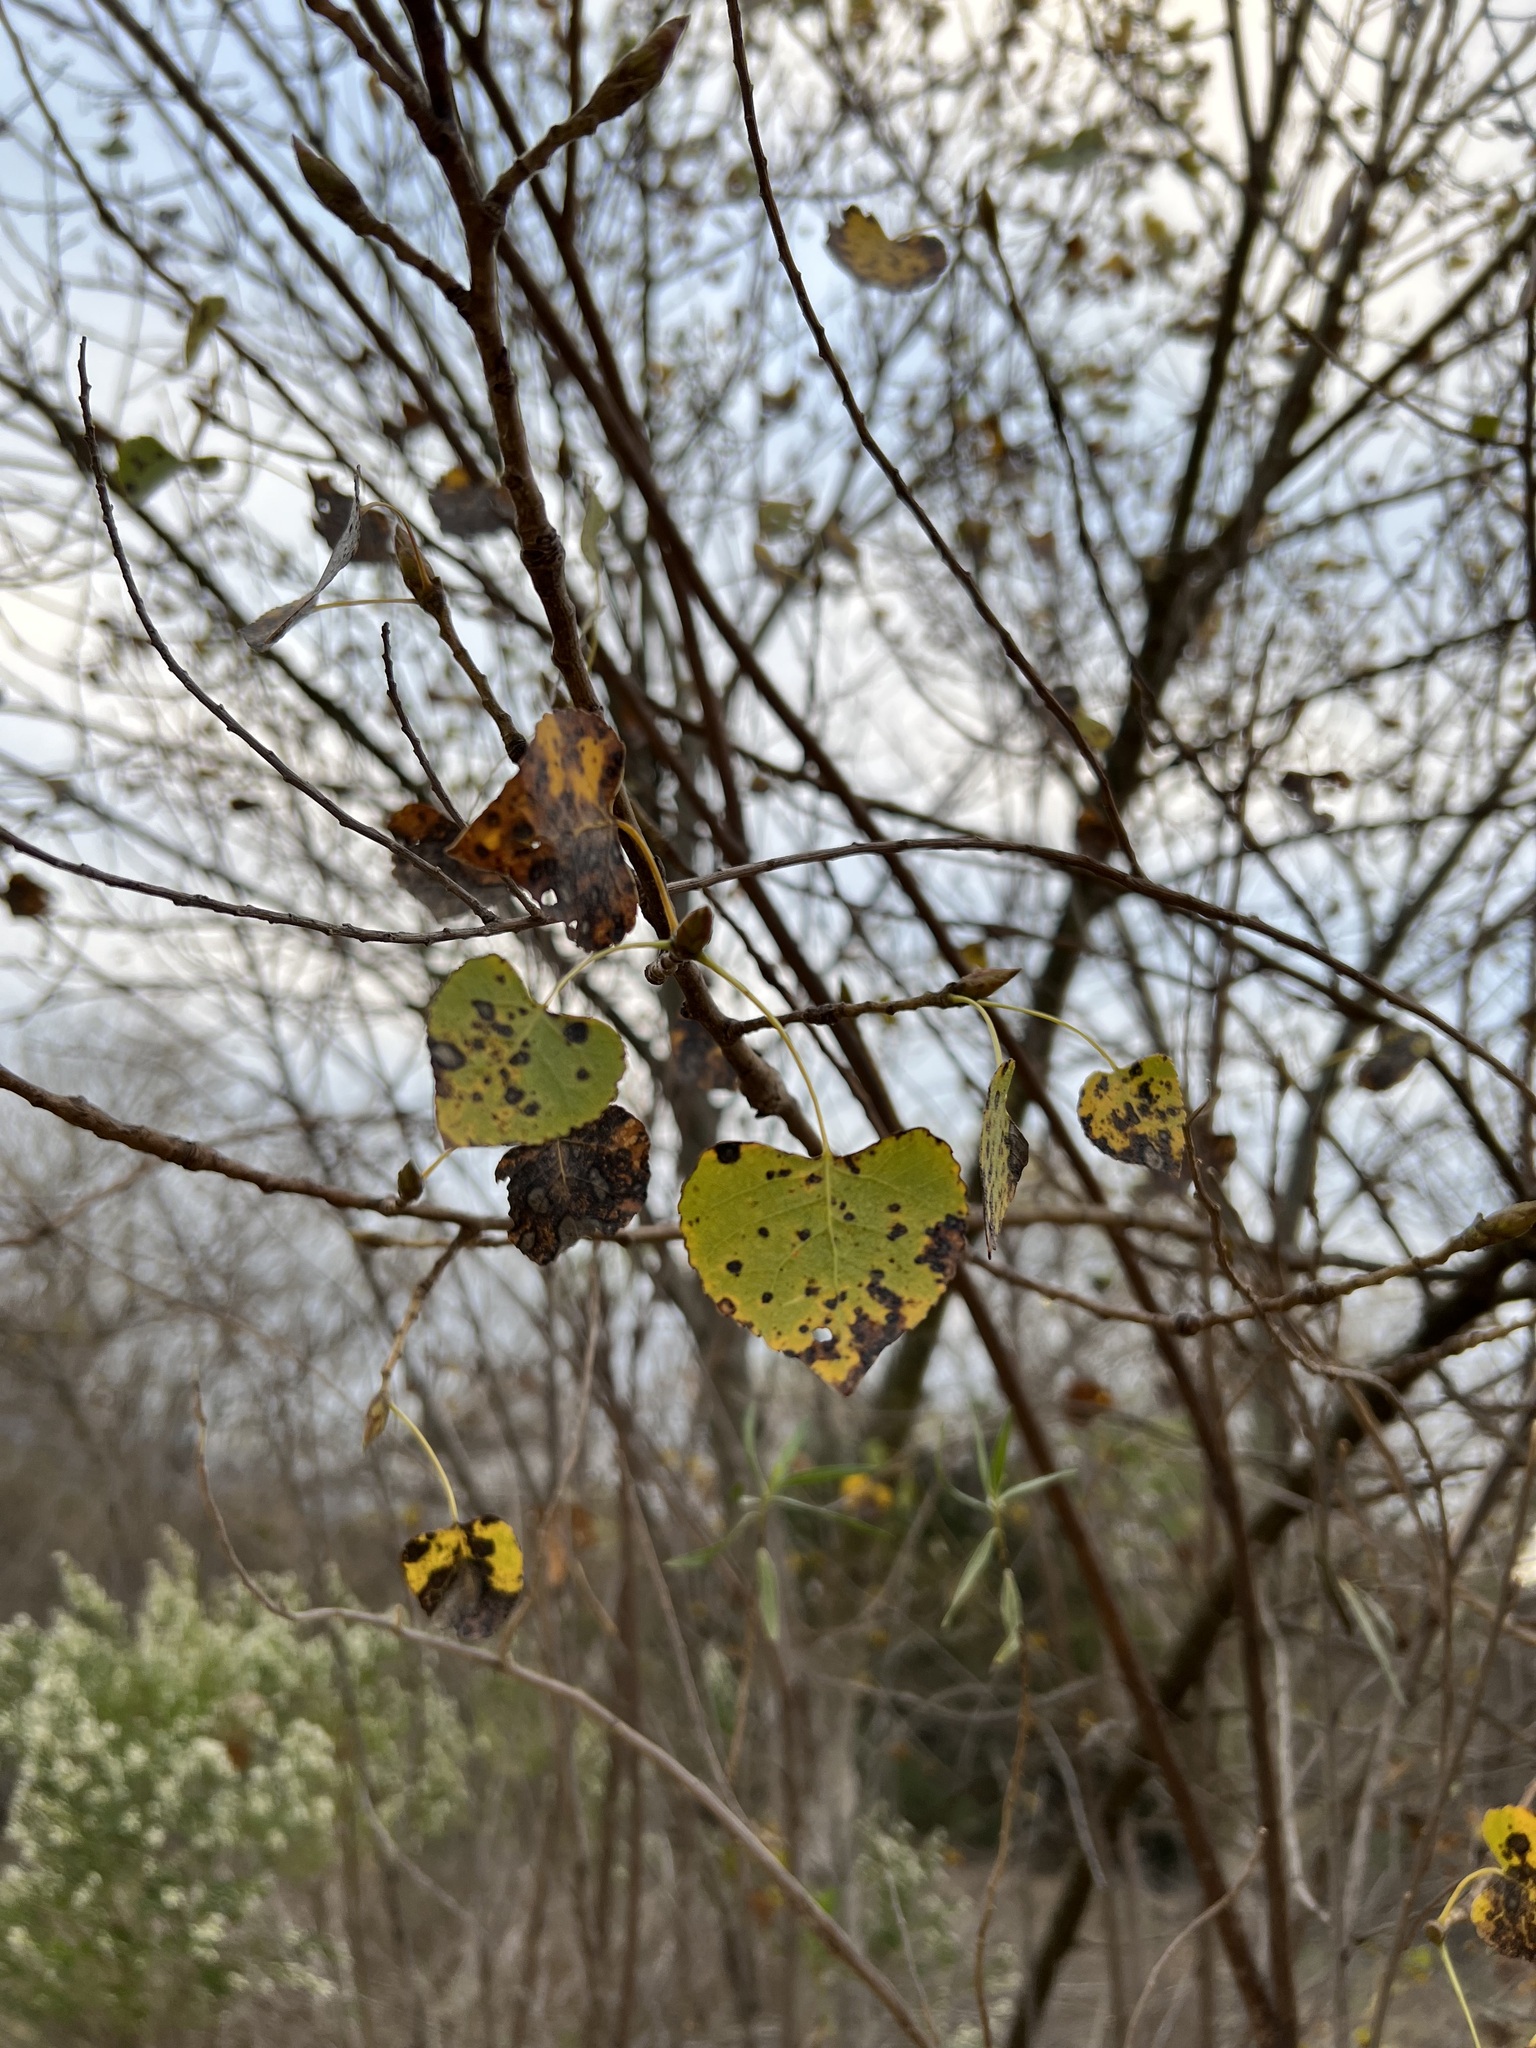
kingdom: Plantae
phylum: Tracheophyta
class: Magnoliopsida
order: Malpighiales
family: Salicaceae
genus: Populus
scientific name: Populus fremontii
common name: Fremont's cottonwood
